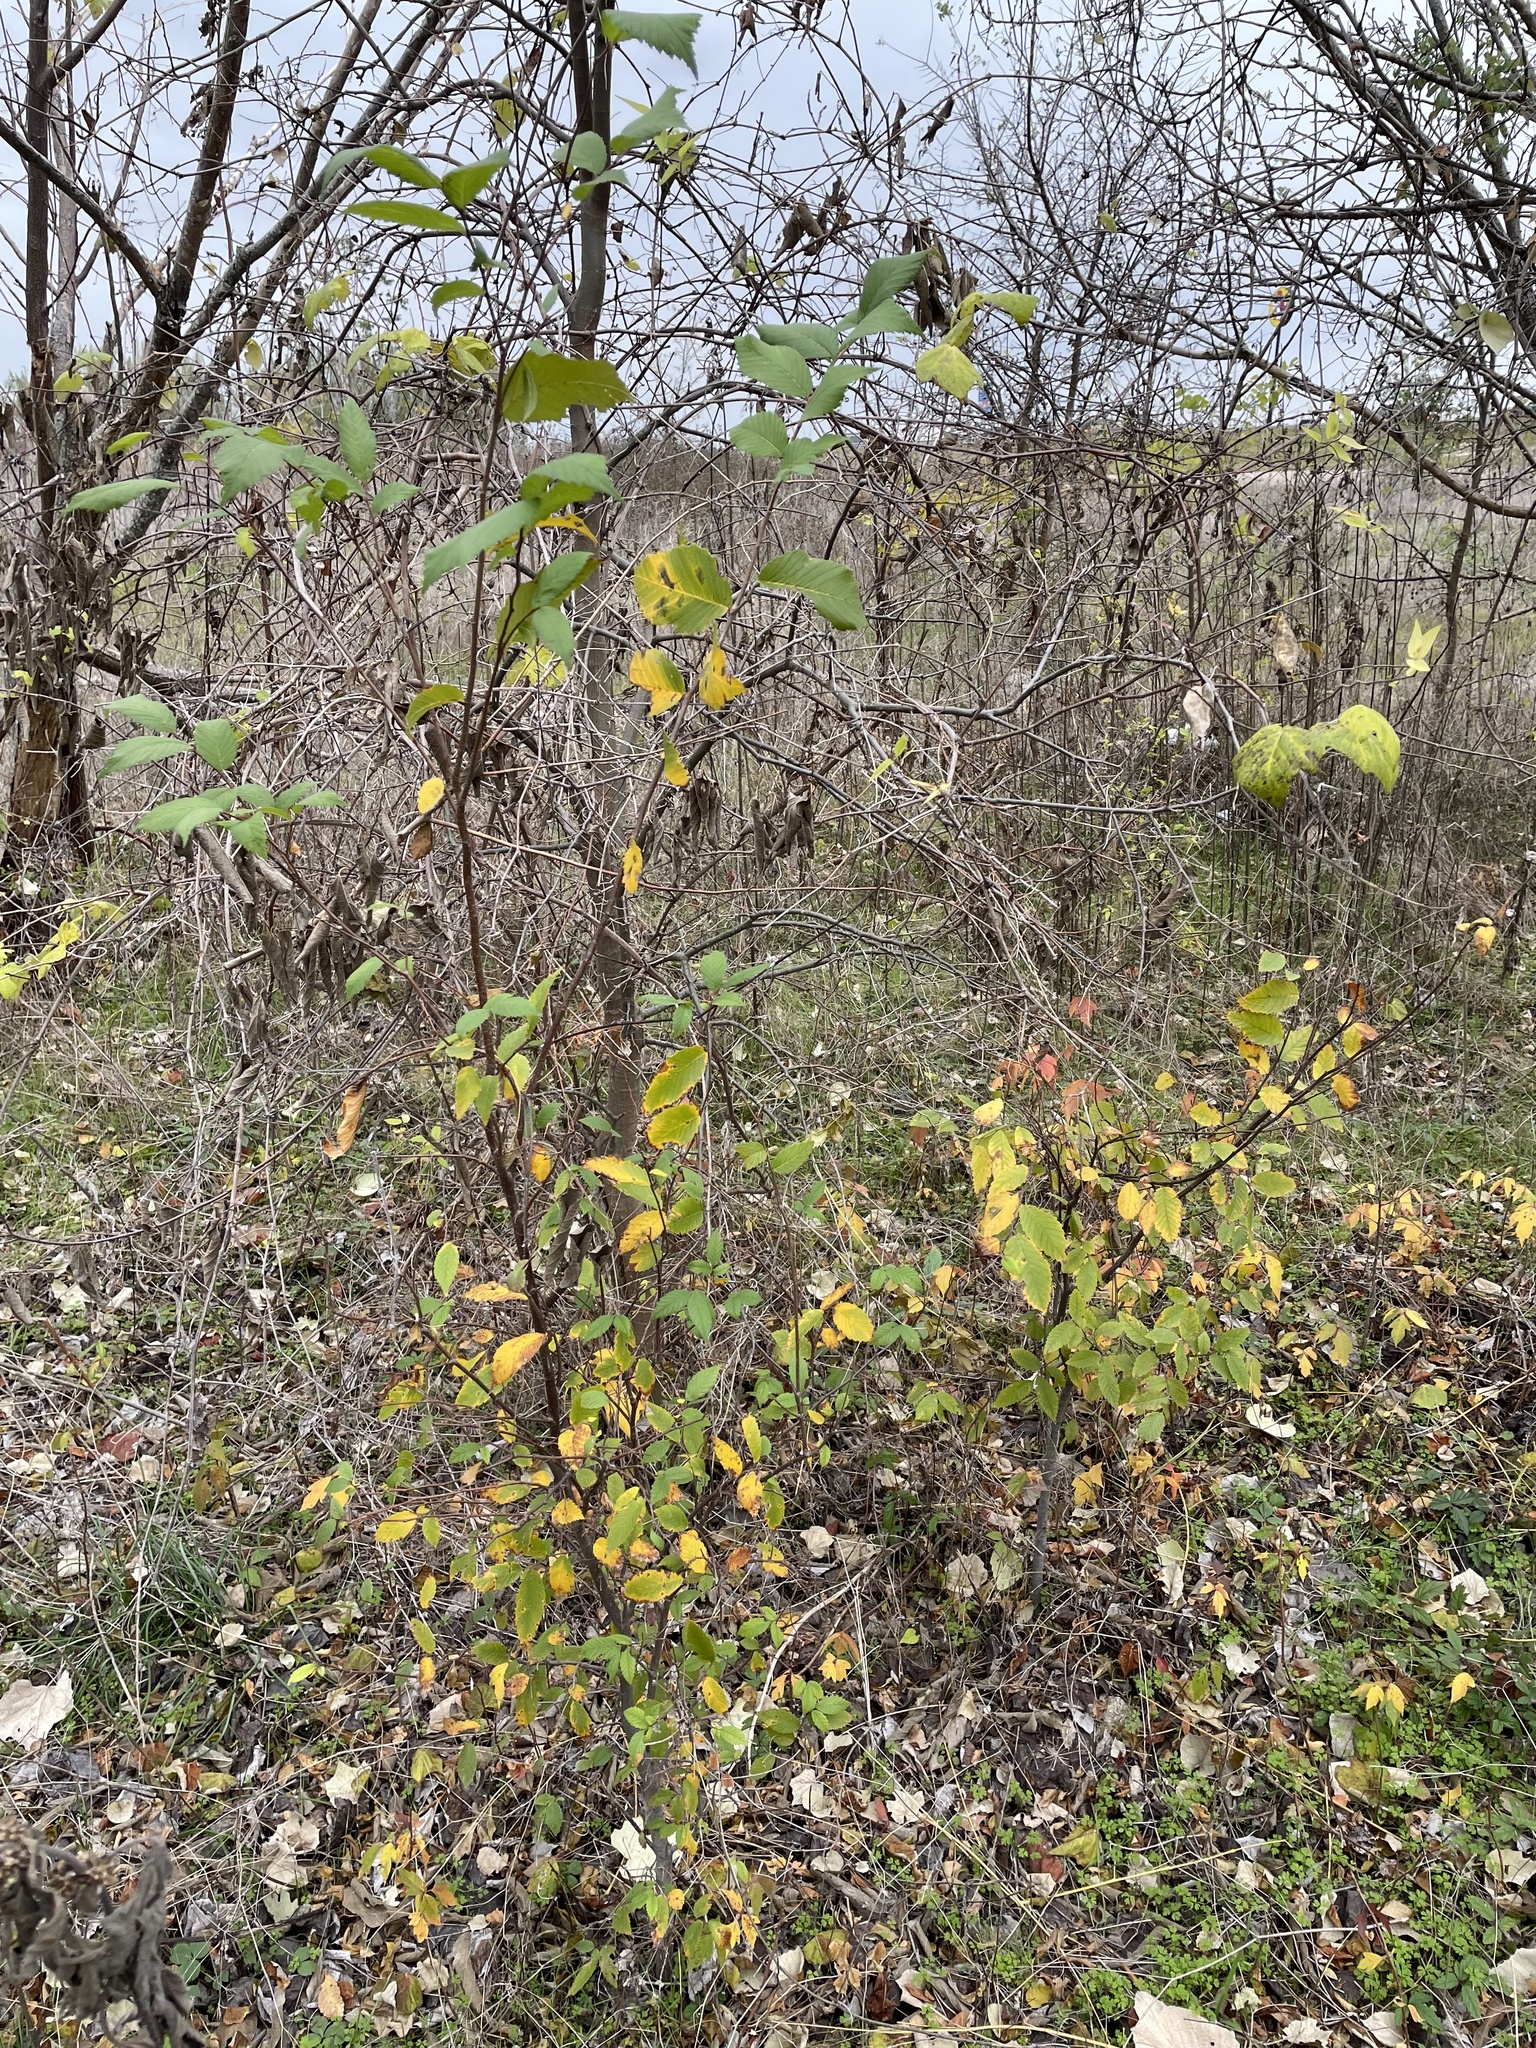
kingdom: Plantae
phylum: Tracheophyta
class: Magnoliopsida
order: Rosales
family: Ulmaceae
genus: Ulmus
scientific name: Ulmus americana
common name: American elm
